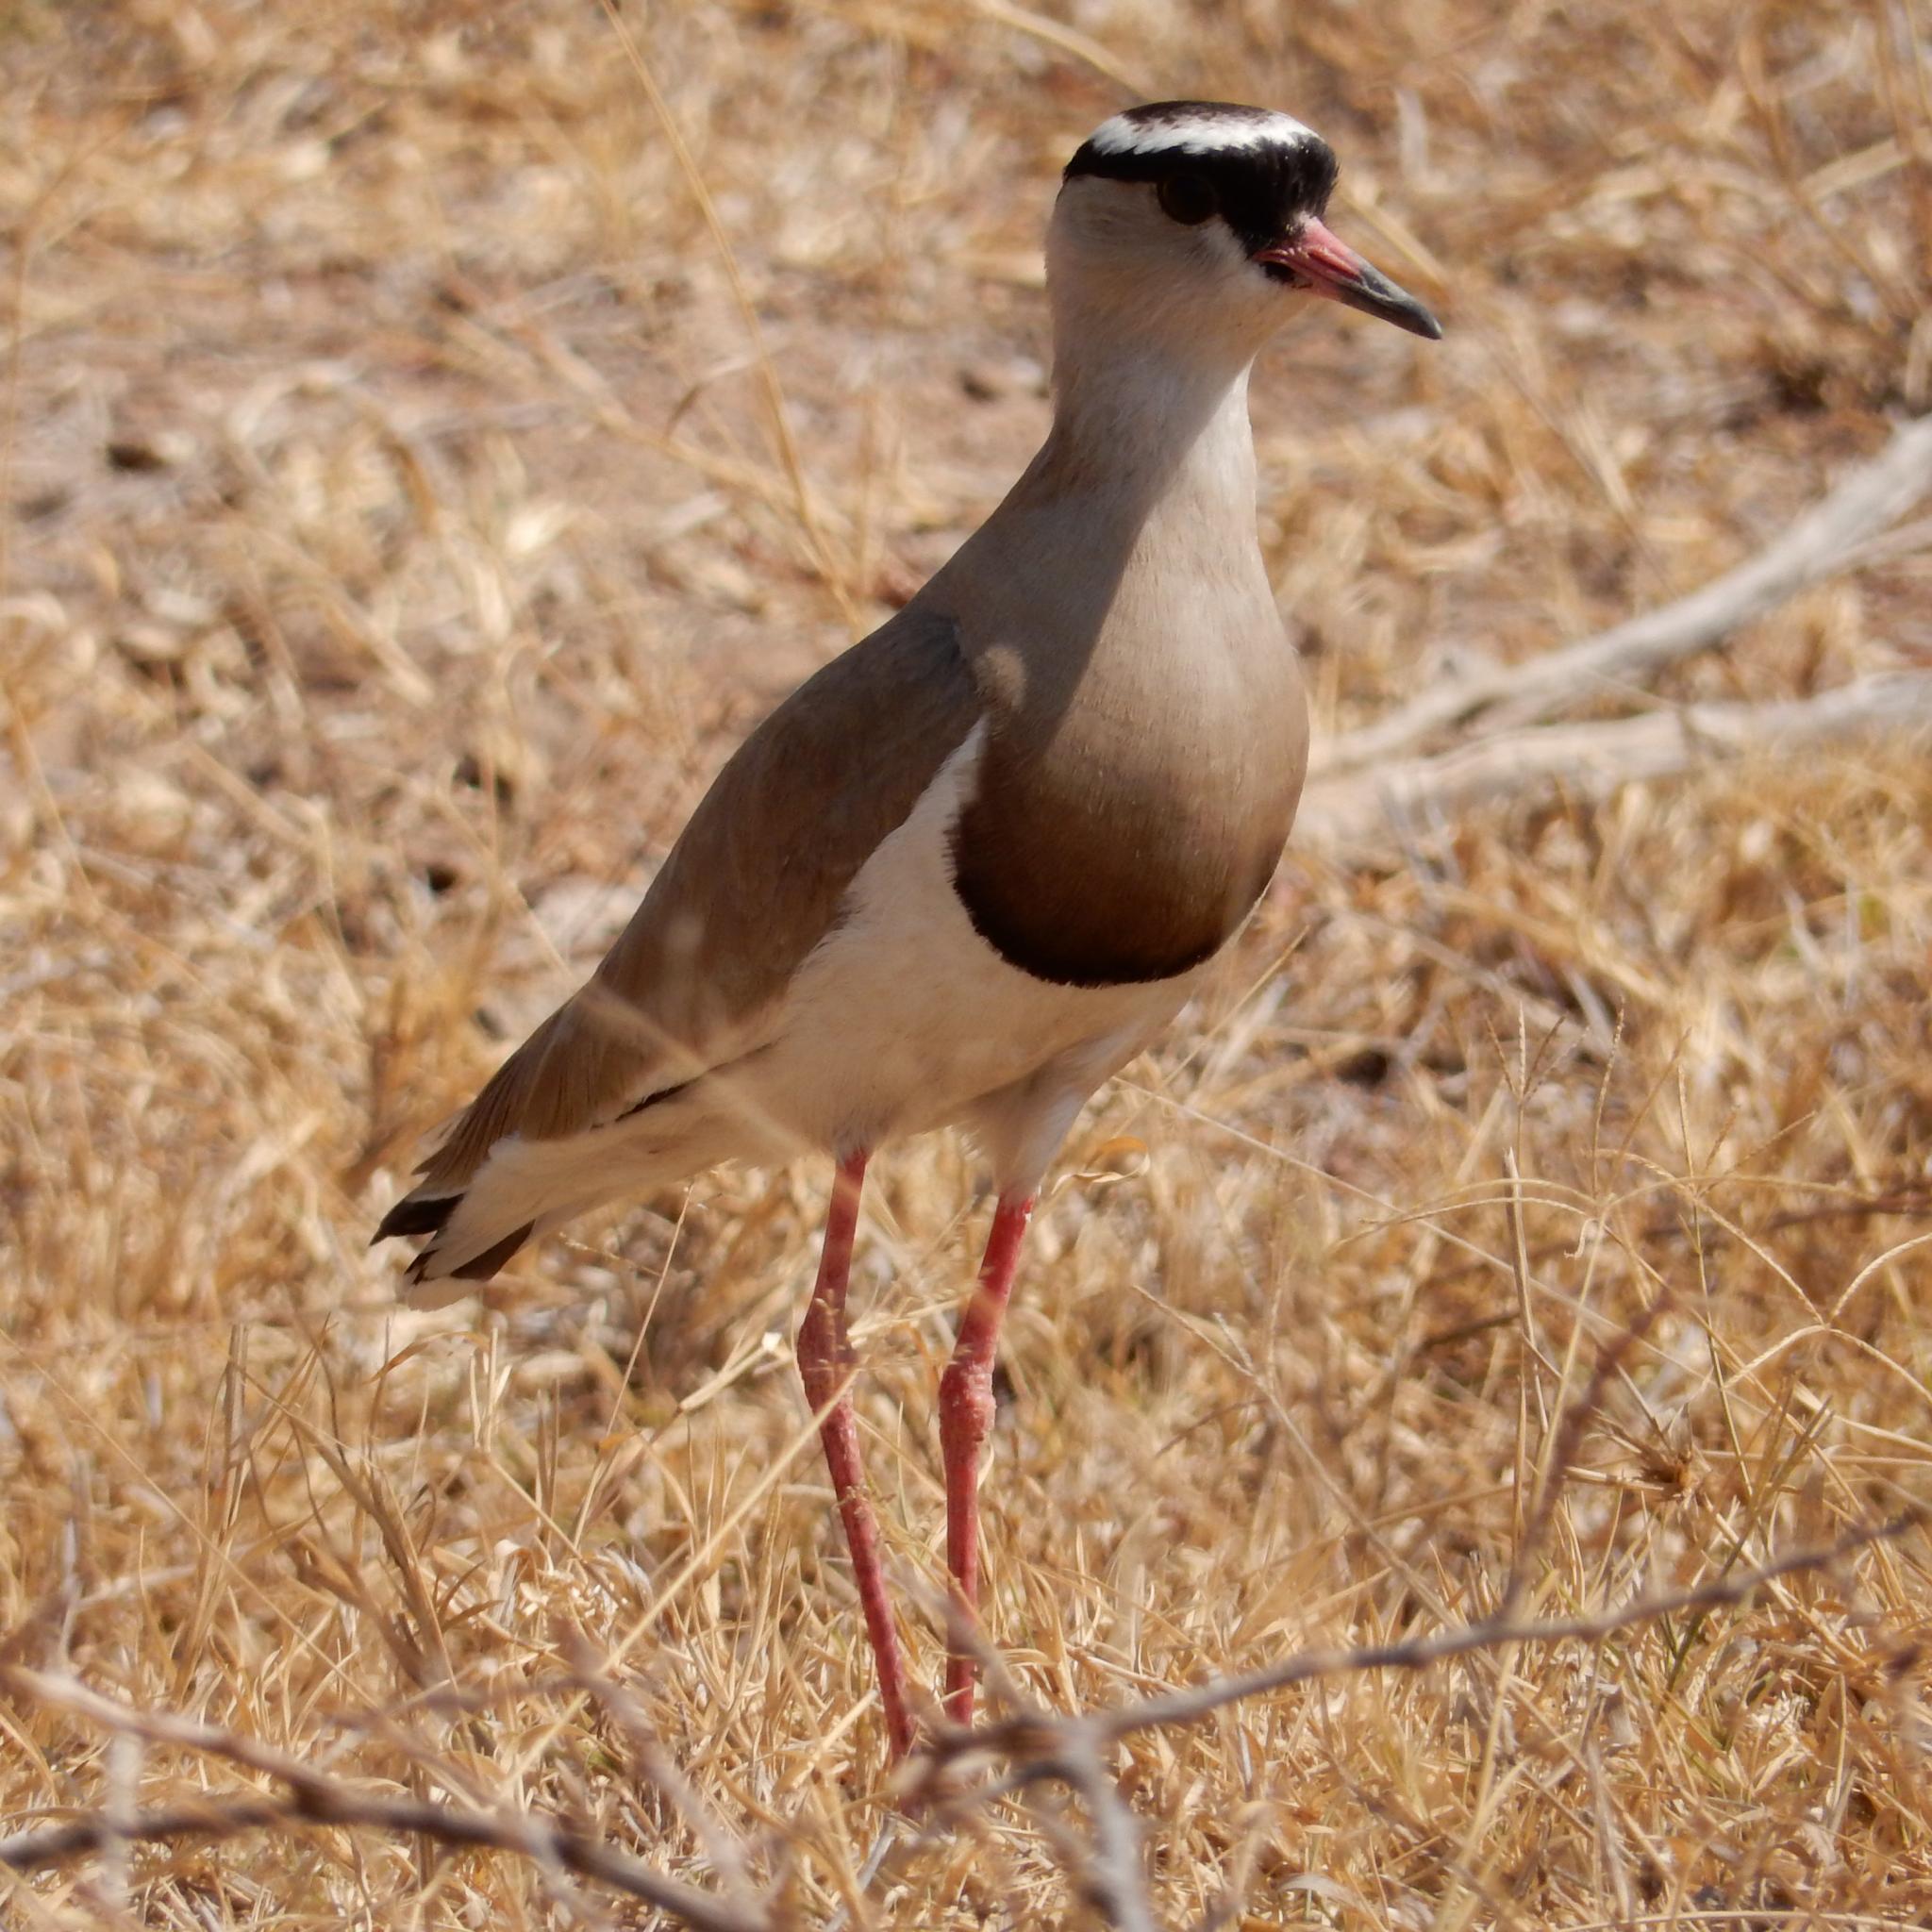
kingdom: Animalia
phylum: Chordata
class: Aves
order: Charadriiformes
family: Charadriidae
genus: Vanellus
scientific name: Vanellus coronatus
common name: Crowned lapwing
